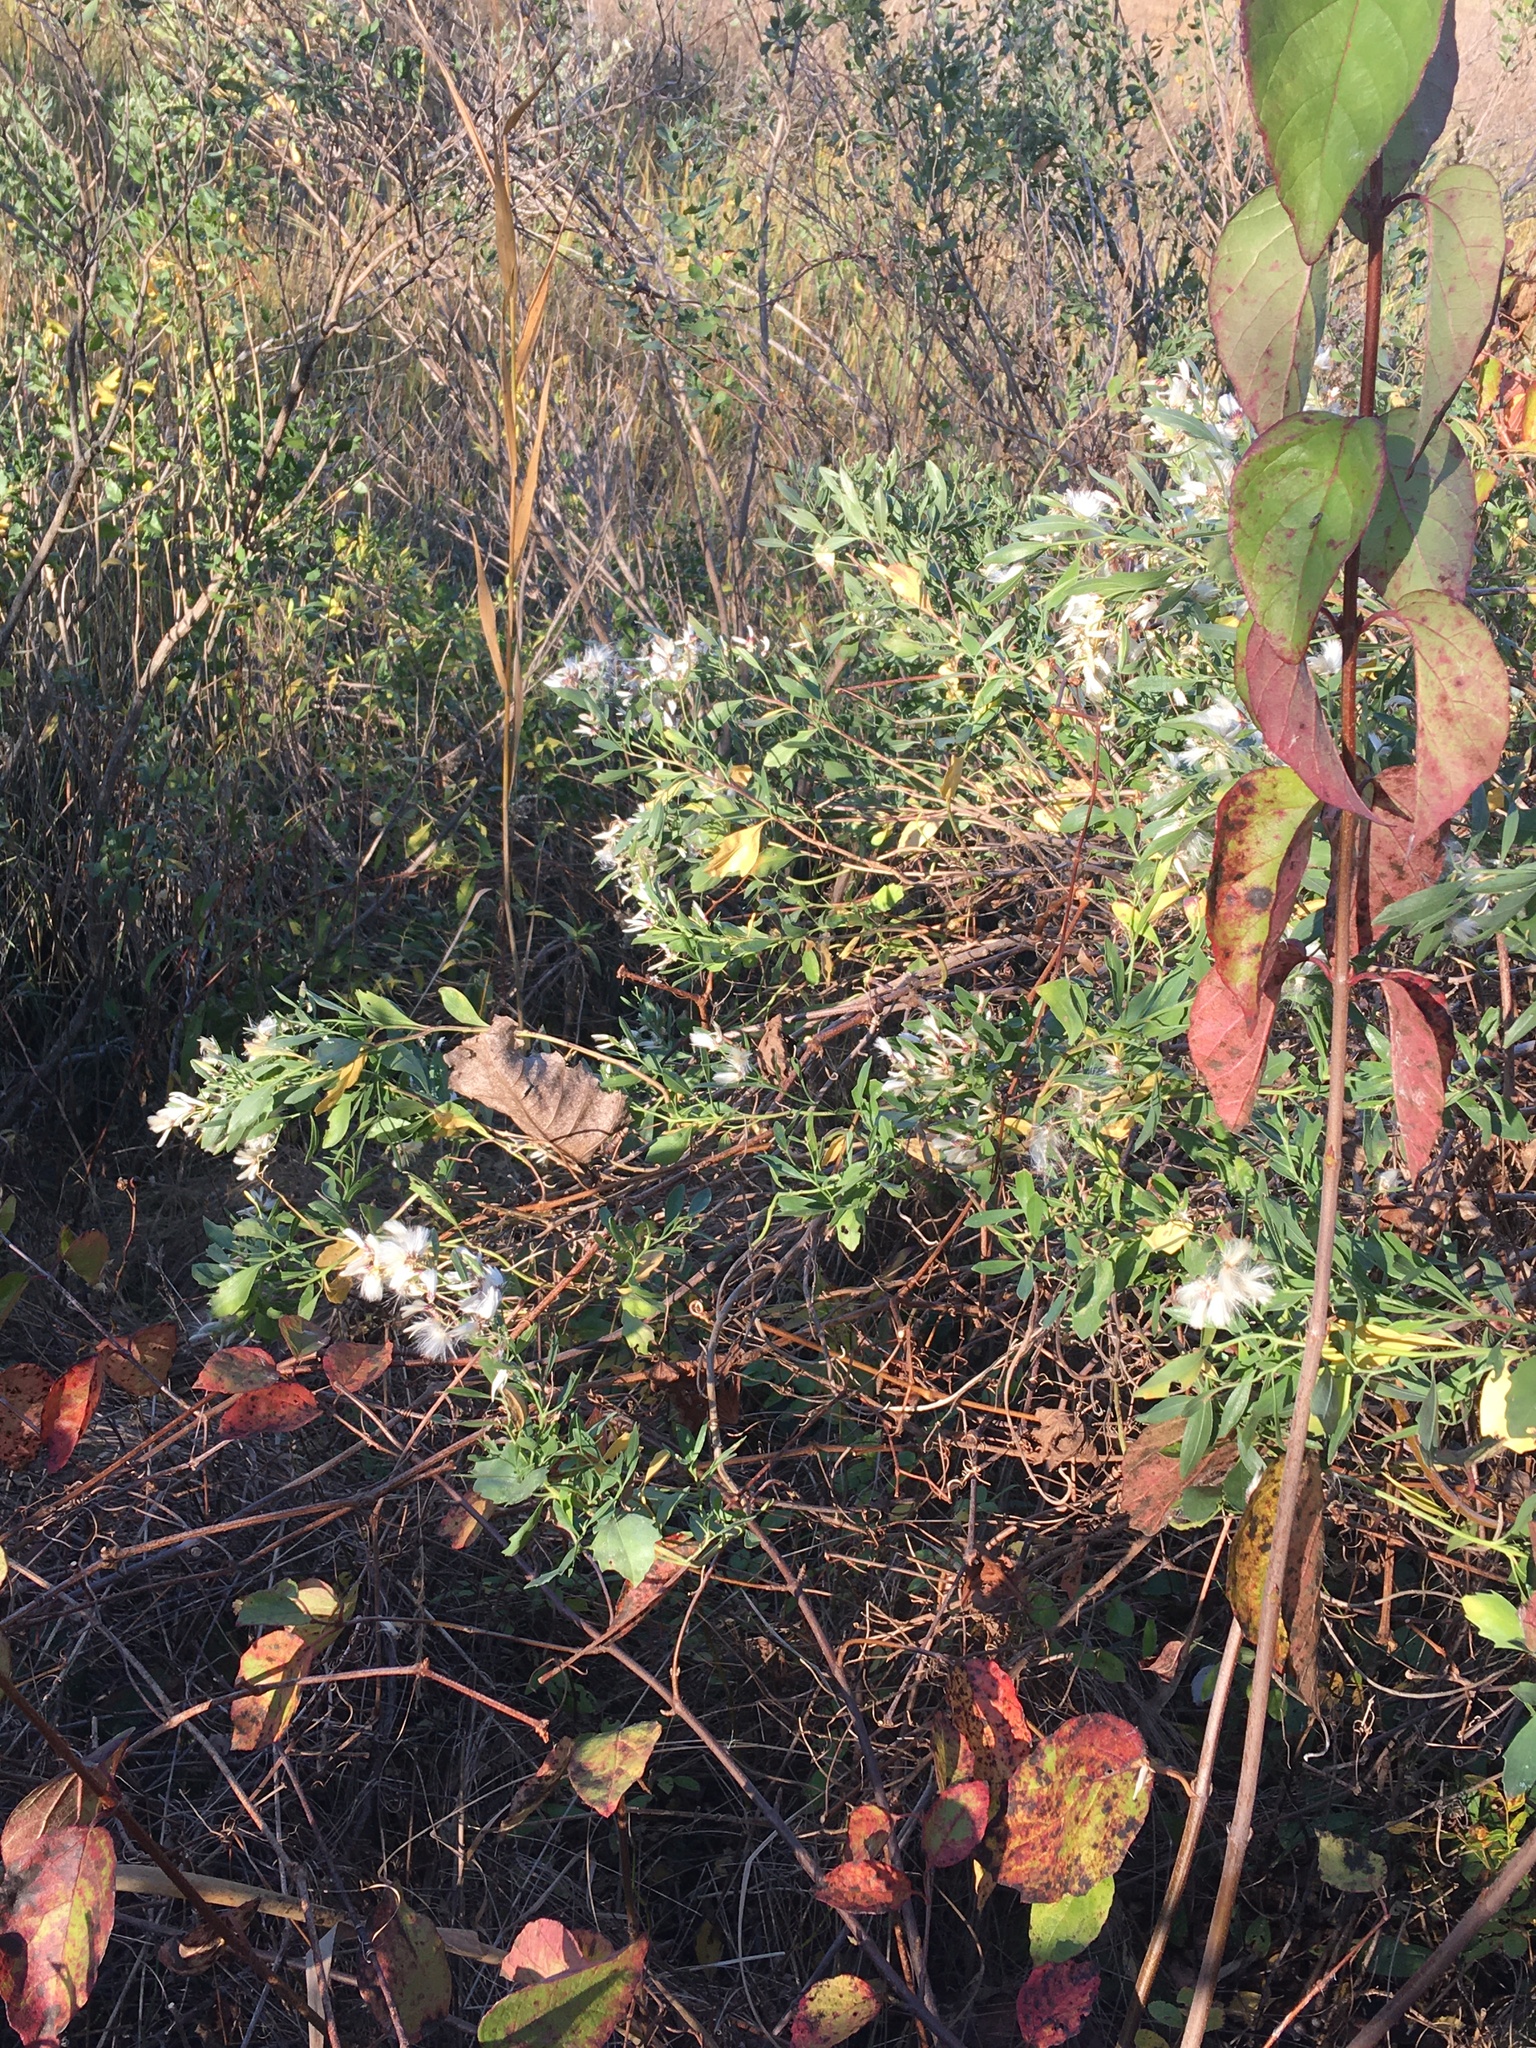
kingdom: Plantae
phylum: Tracheophyta
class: Magnoliopsida
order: Asterales
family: Asteraceae
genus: Baccharis
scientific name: Baccharis halimifolia
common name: Eastern baccharis
